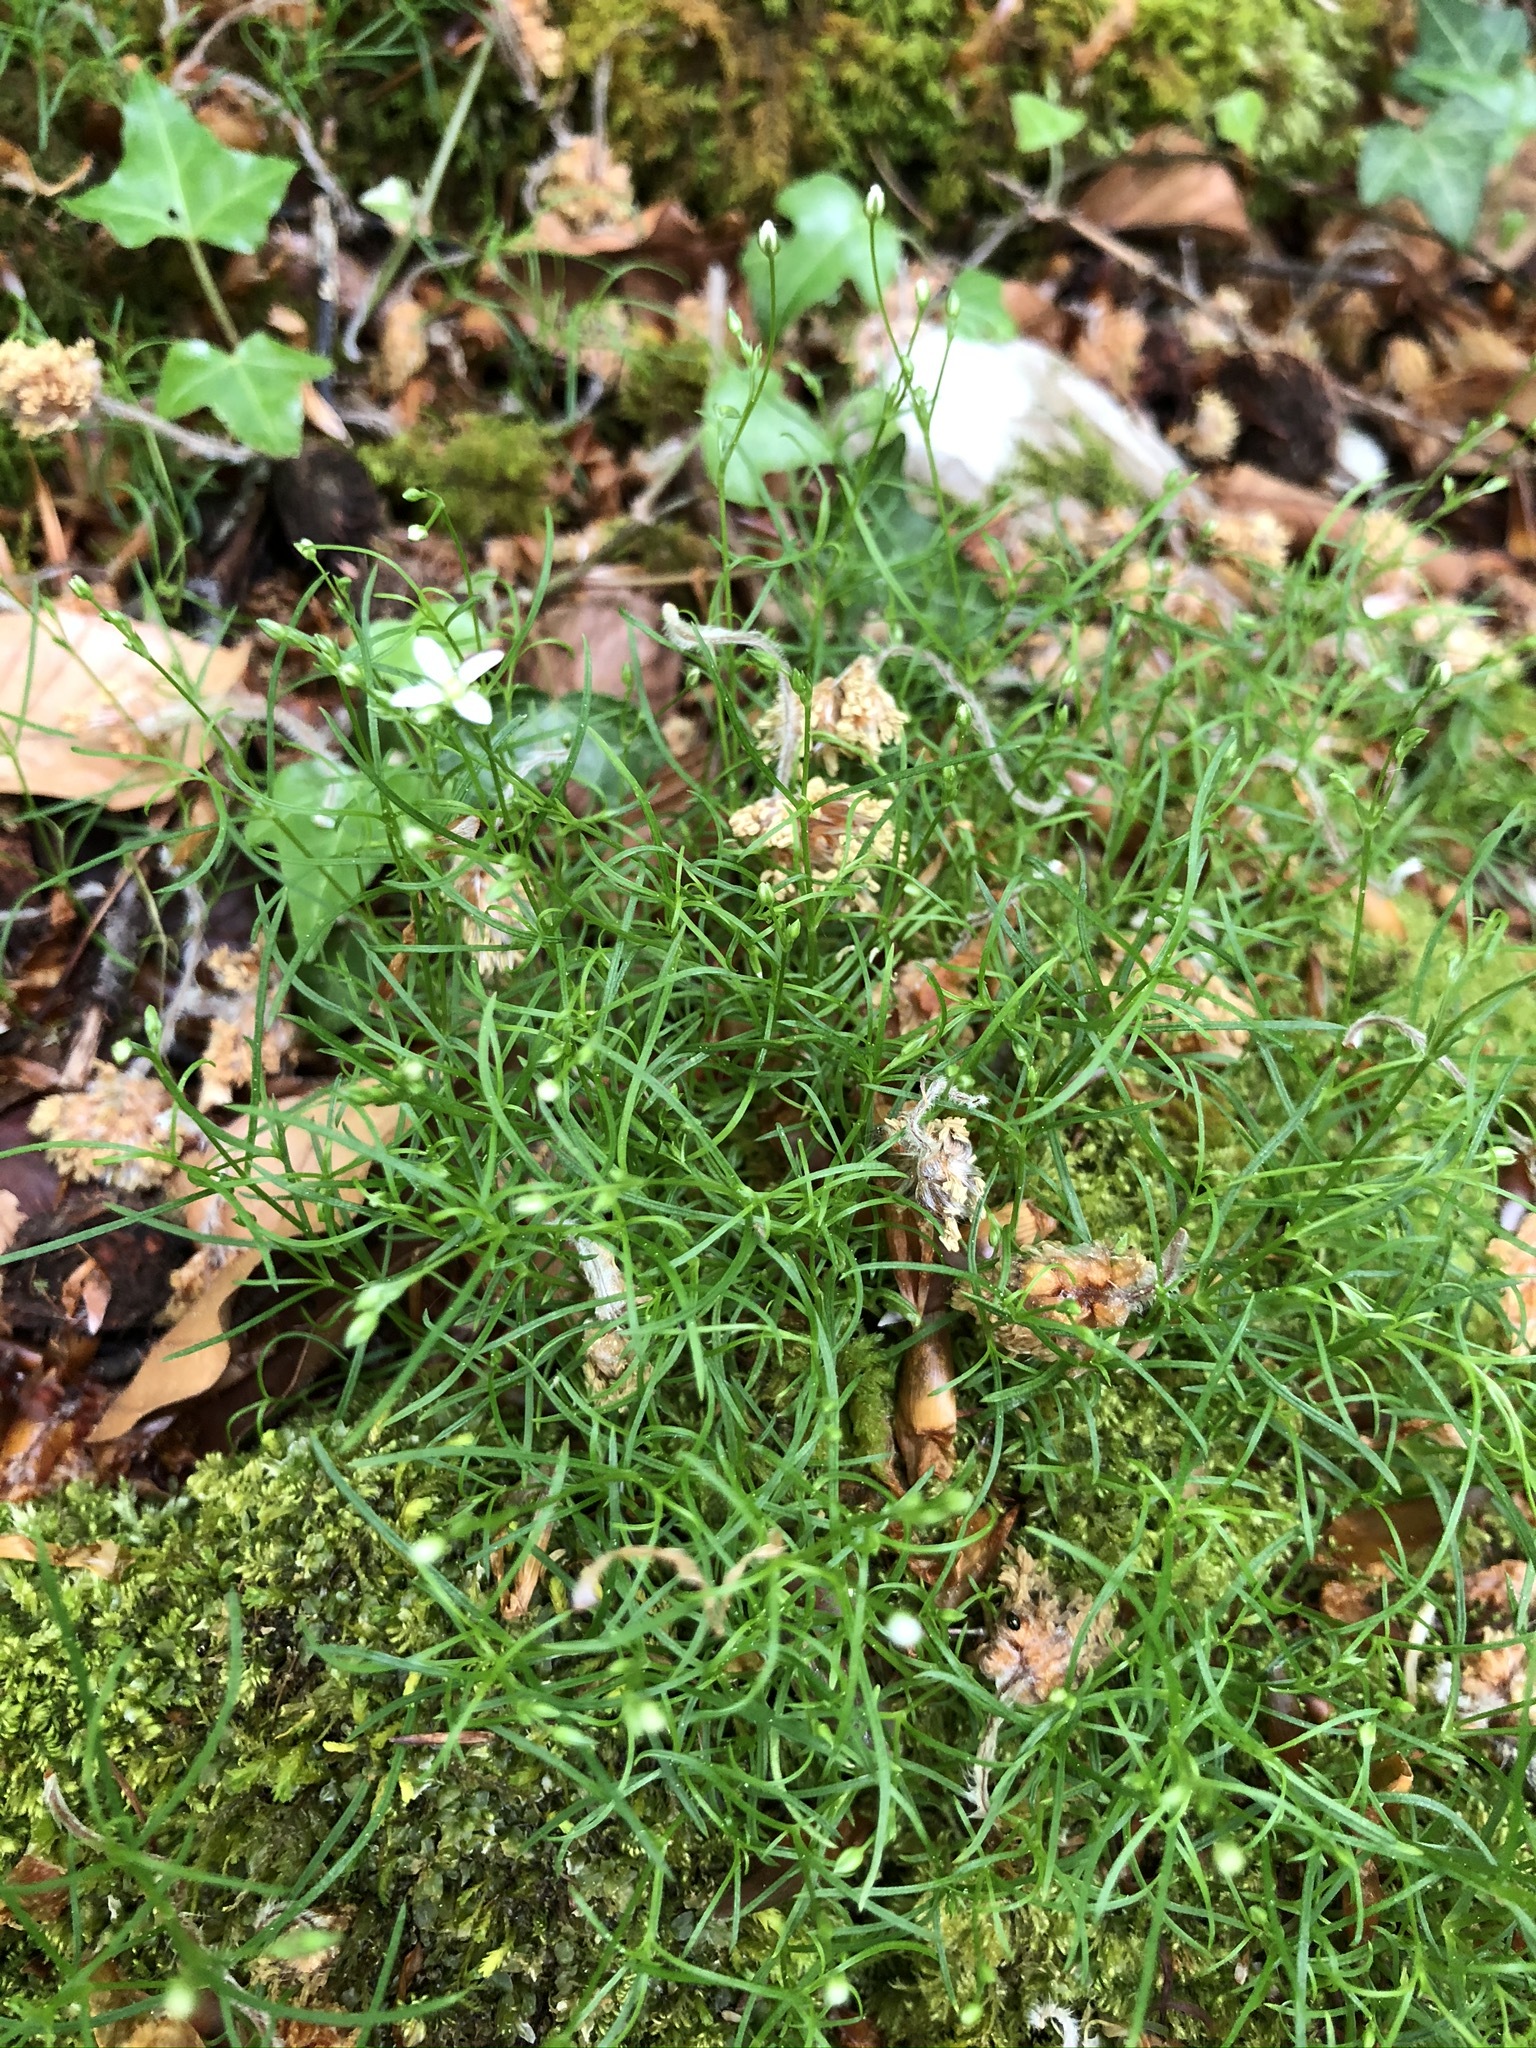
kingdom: Plantae
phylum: Tracheophyta
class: Magnoliopsida
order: Caryophyllales
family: Caryophyllaceae
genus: Moehringia
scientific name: Moehringia muscosa
